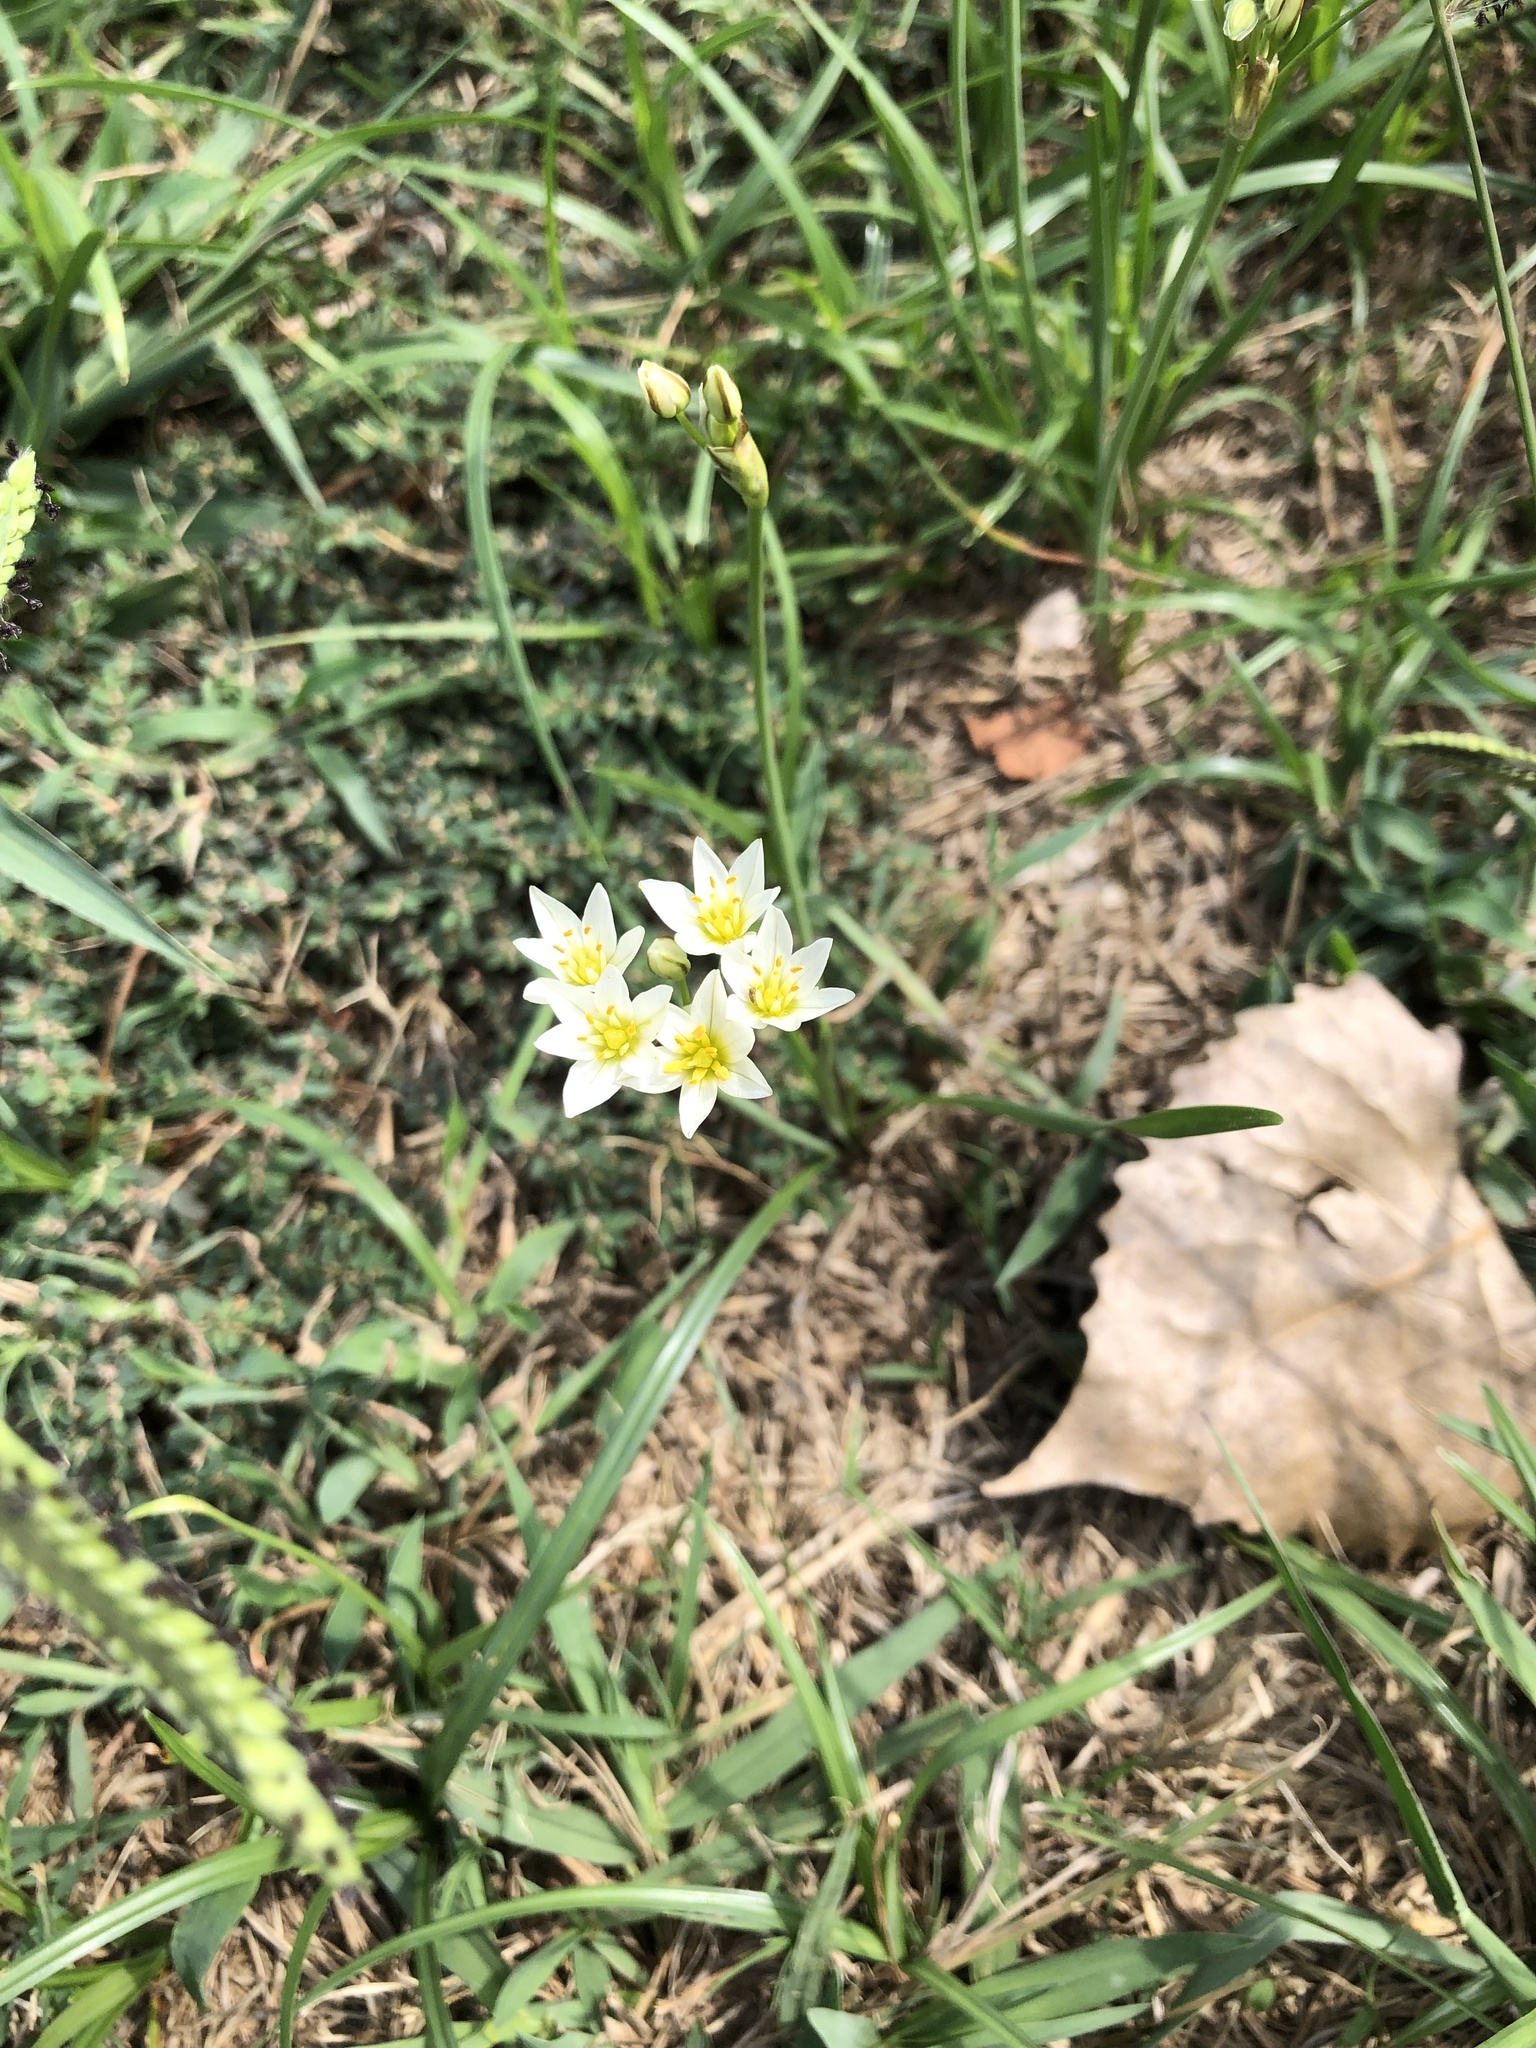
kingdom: Plantae
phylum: Tracheophyta
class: Liliopsida
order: Asparagales
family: Amaryllidaceae
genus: Nothoscordum
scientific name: Nothoscordum bivalve
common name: Crow-poison
